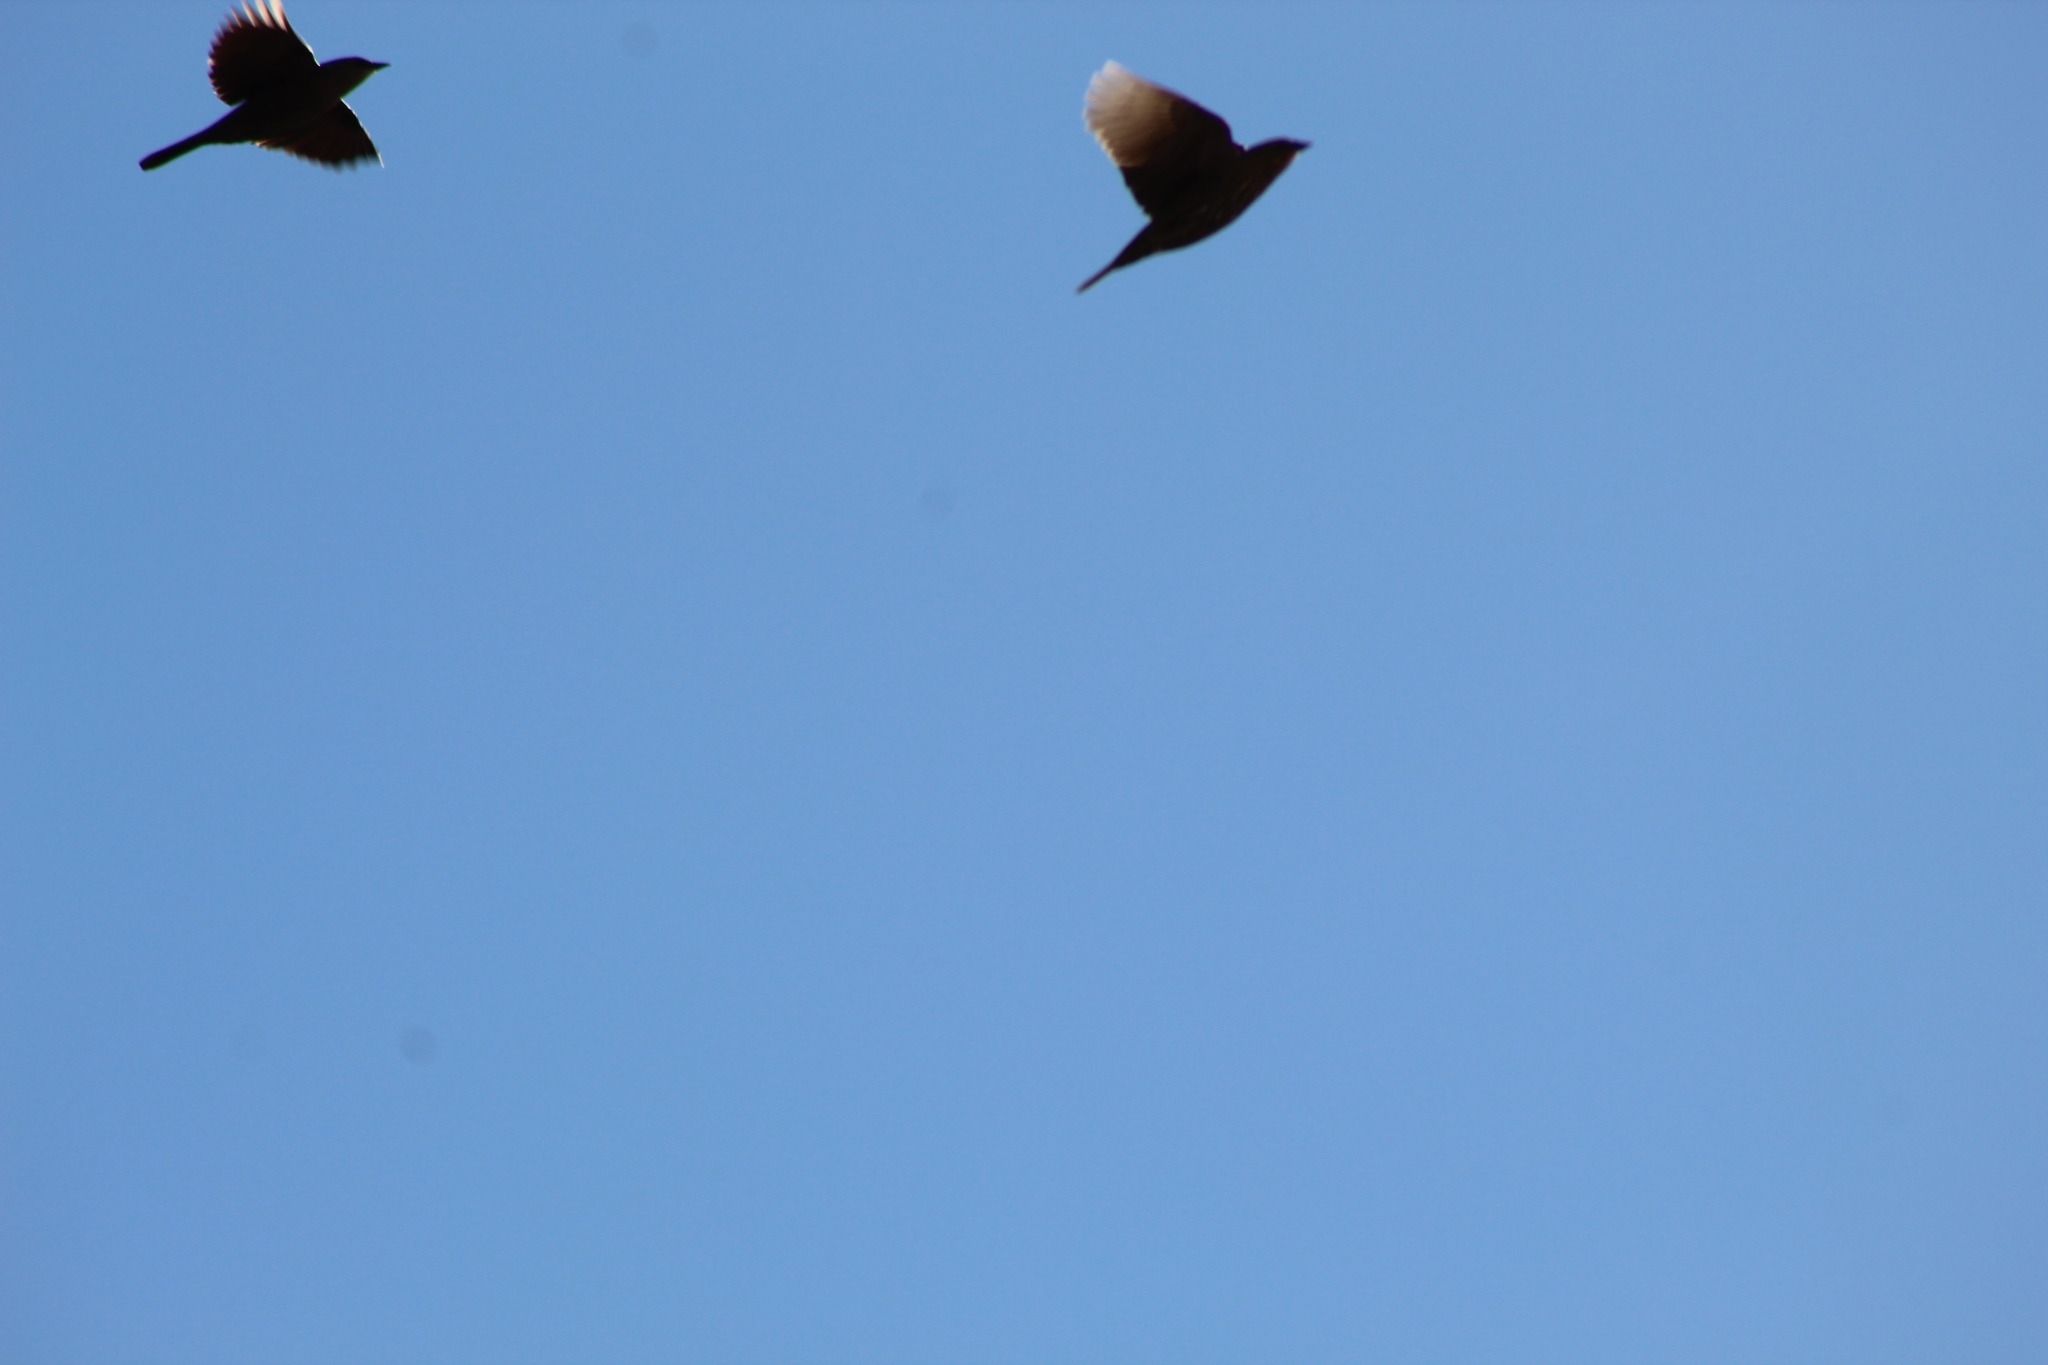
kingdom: Animalia
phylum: Chordata
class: Aves
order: Passeriformes
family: Icteridae
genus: Euphagus
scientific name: Euphagus cyanocephalus
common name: Brewer's blackbird
